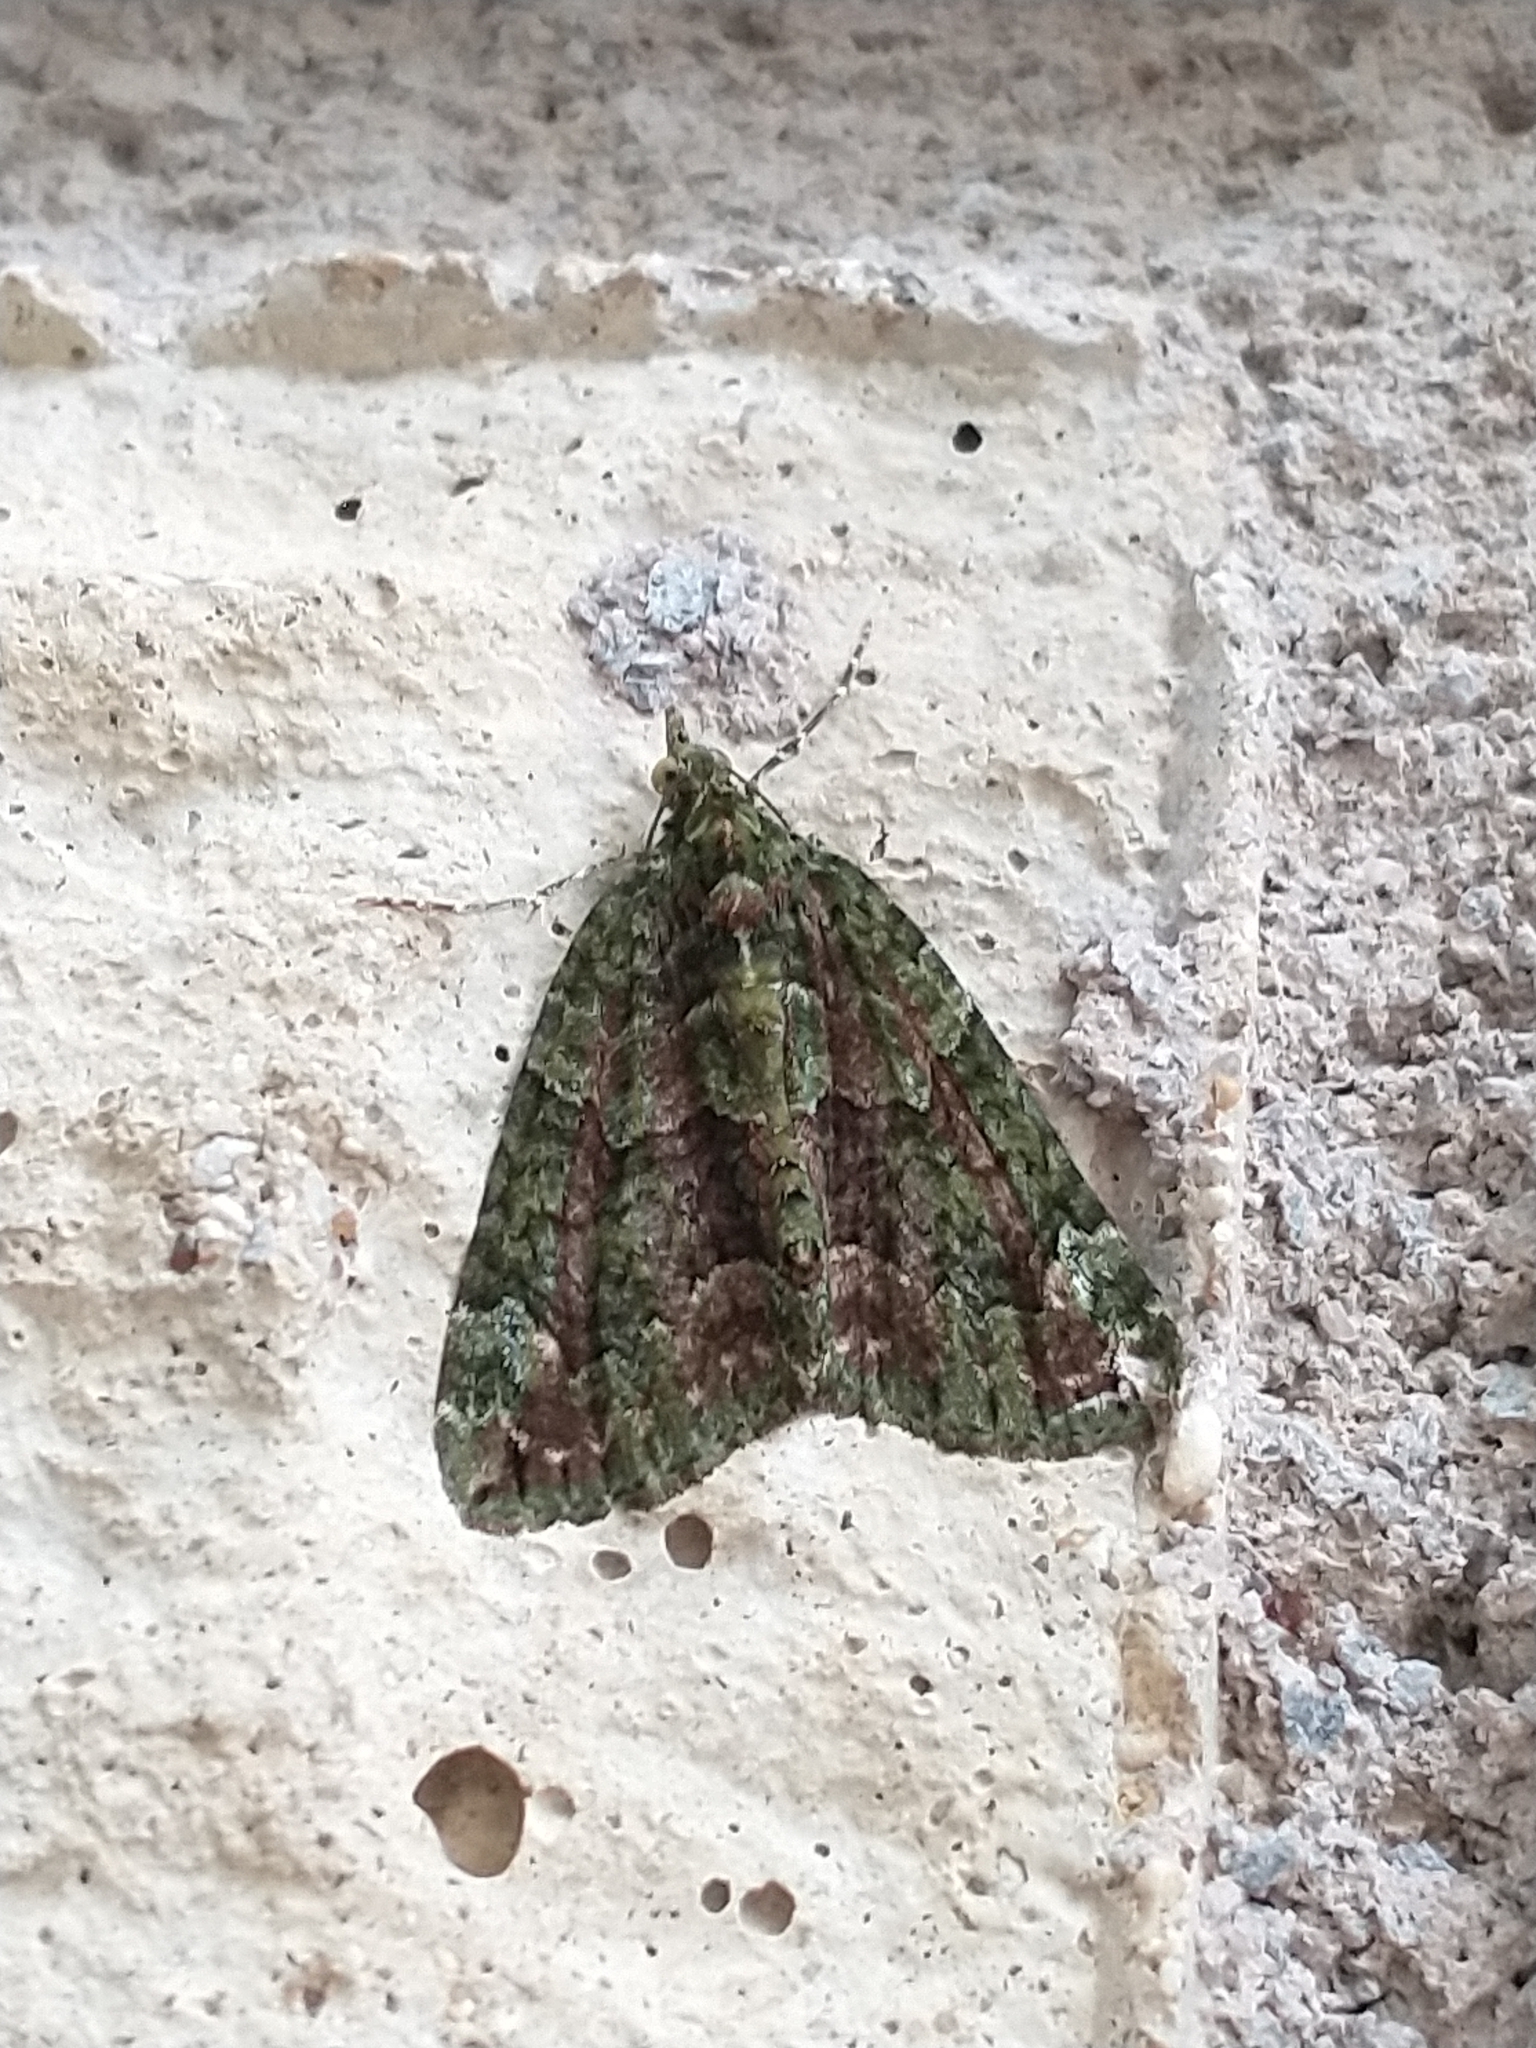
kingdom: Animalia
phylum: Arthropoda
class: Insecta
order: Lepidoptera
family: Geometridae
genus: Chloroclysta
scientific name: Chloroclysta siterata
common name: Red-green carpet
